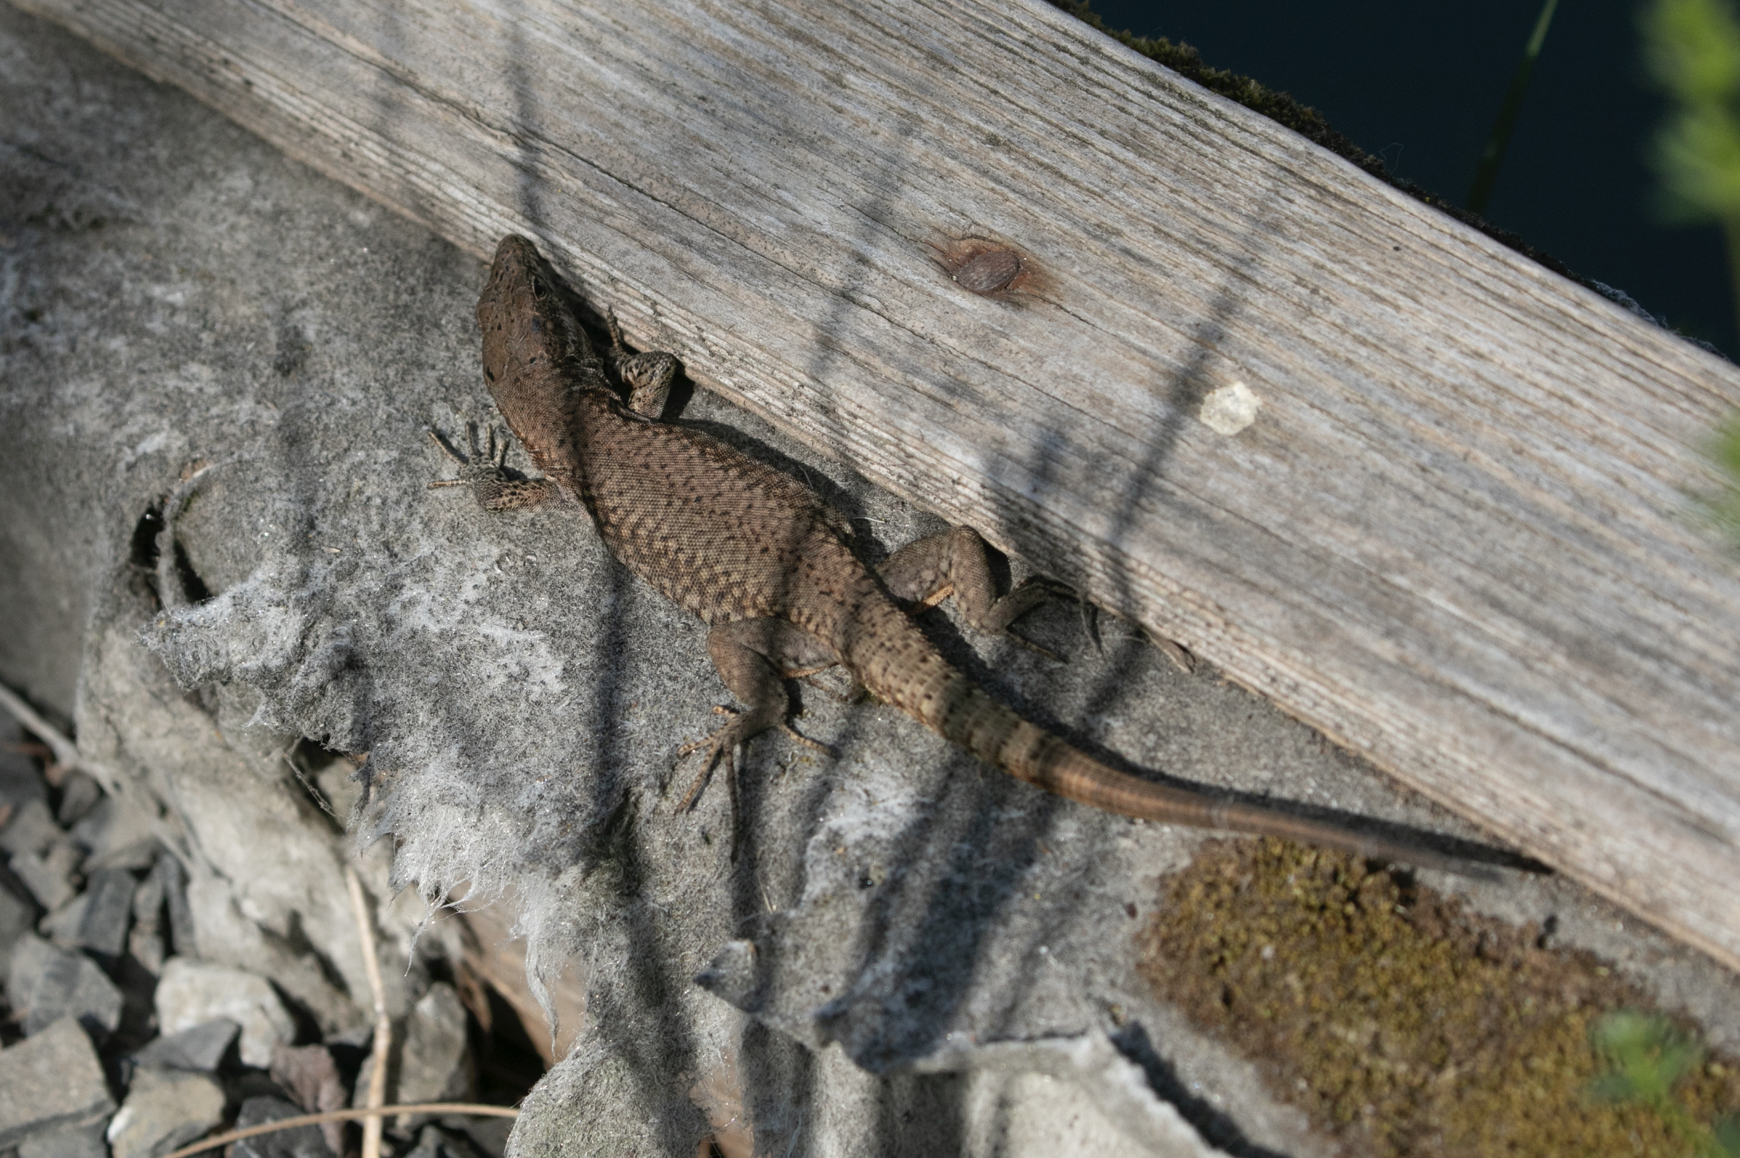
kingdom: Animalia
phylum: Chordata
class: Squamata
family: Lacertidae
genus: Podarcis
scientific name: Podarcis muralis
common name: Common wall lizard
